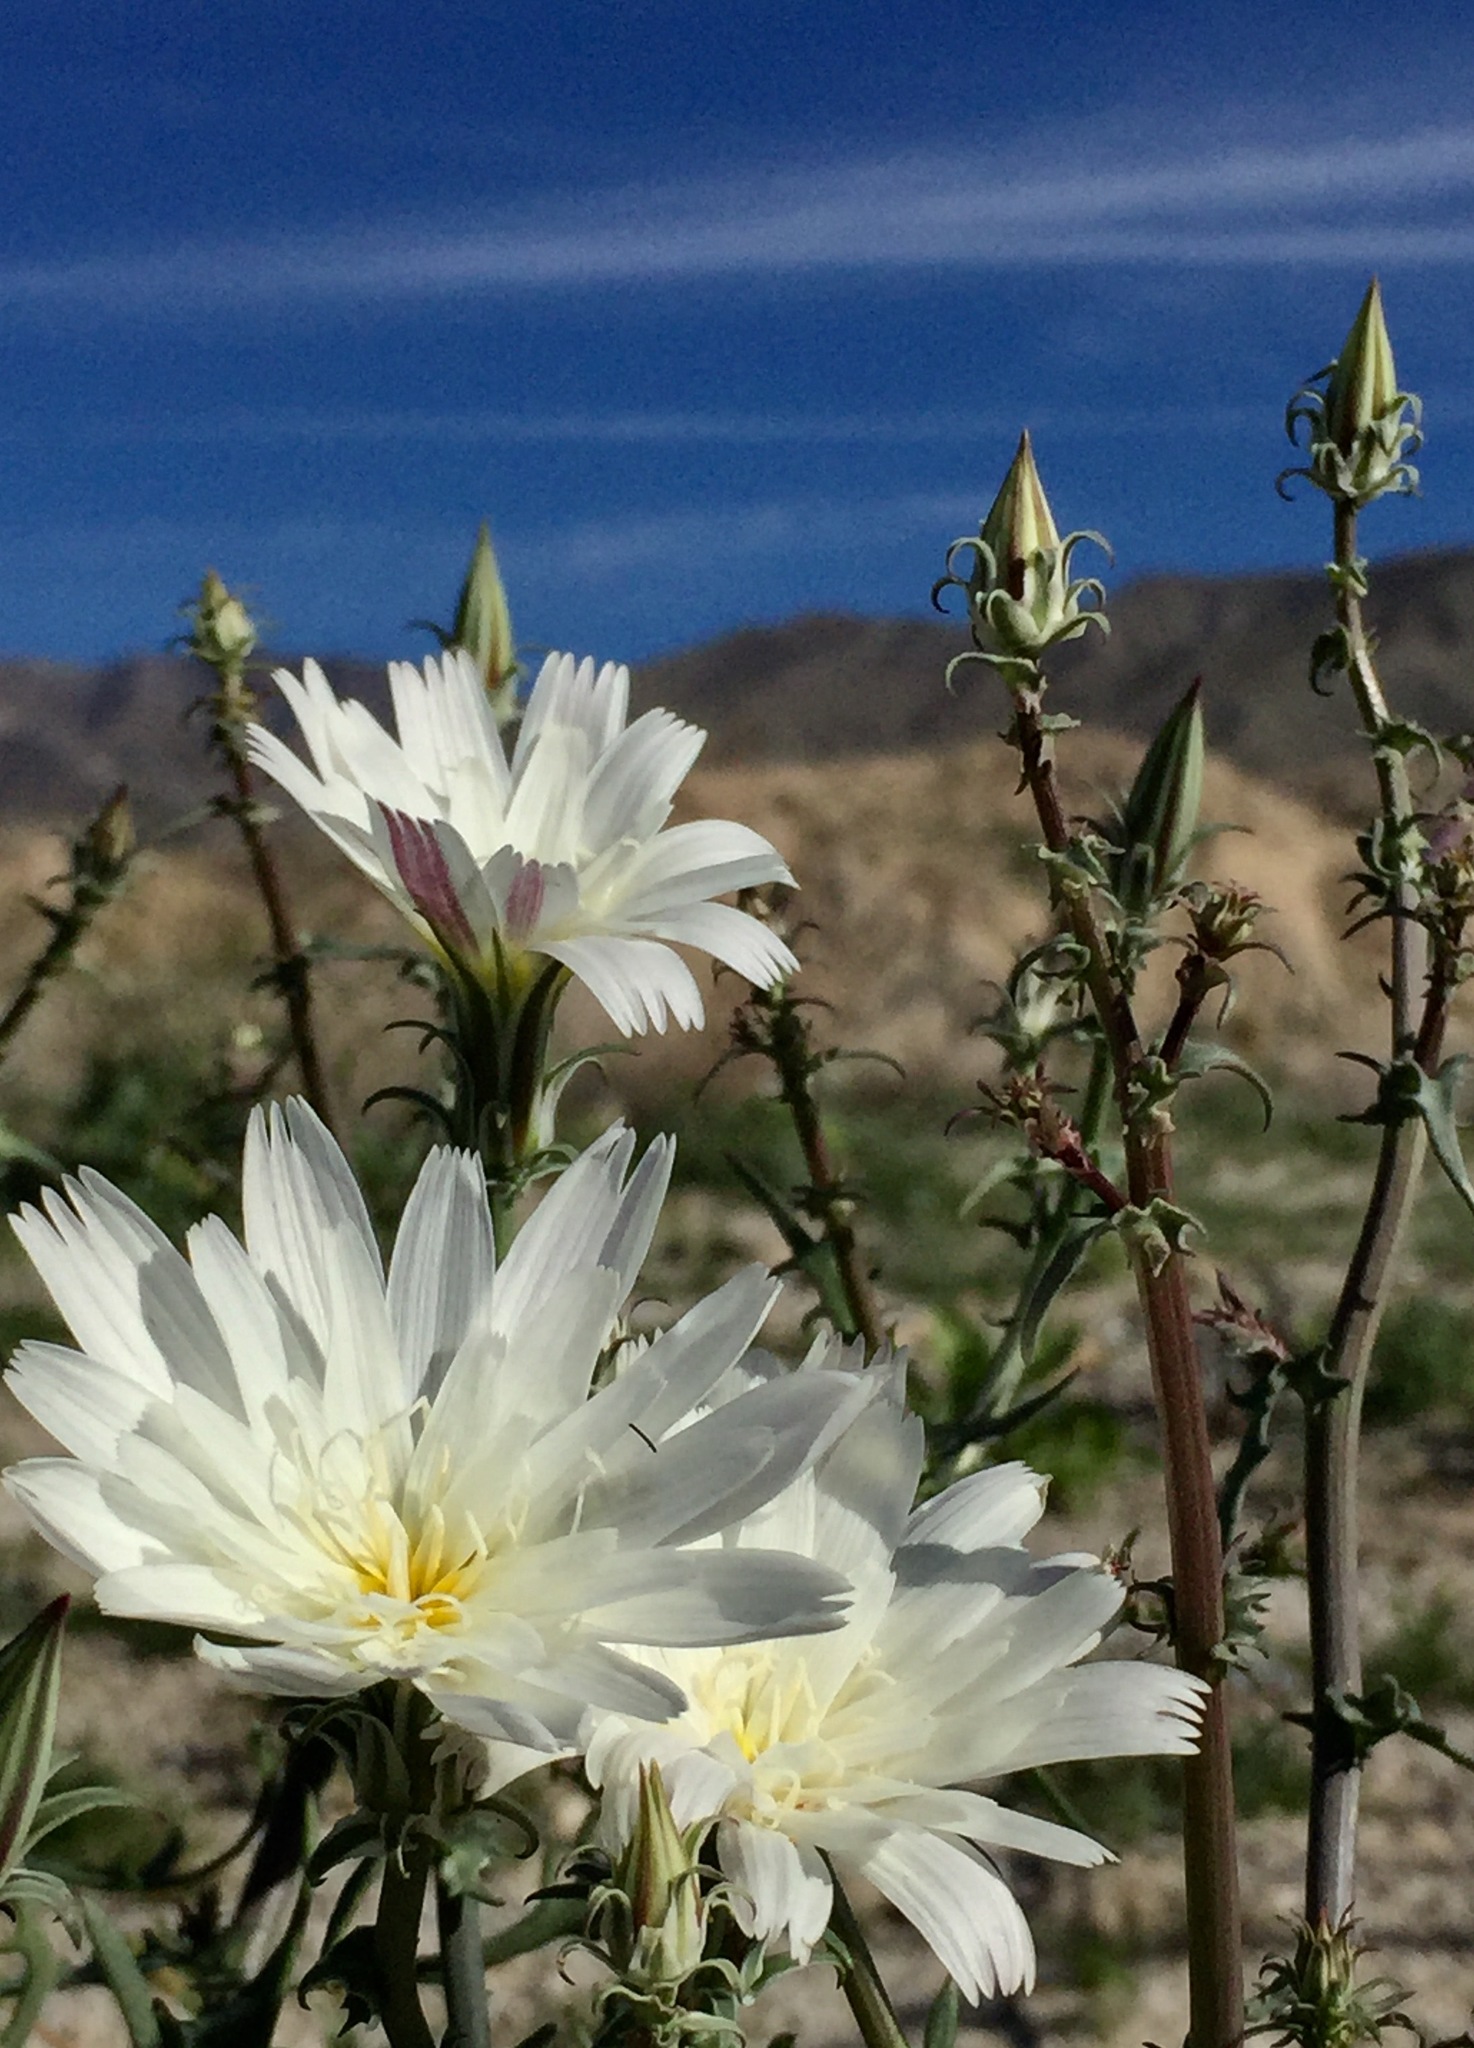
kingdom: Plantae
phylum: Tracheophyta
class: Magnoliopsida
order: Asterales
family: Asteraceae
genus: Rafinesquia
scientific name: Rafinesquia neomexicana
